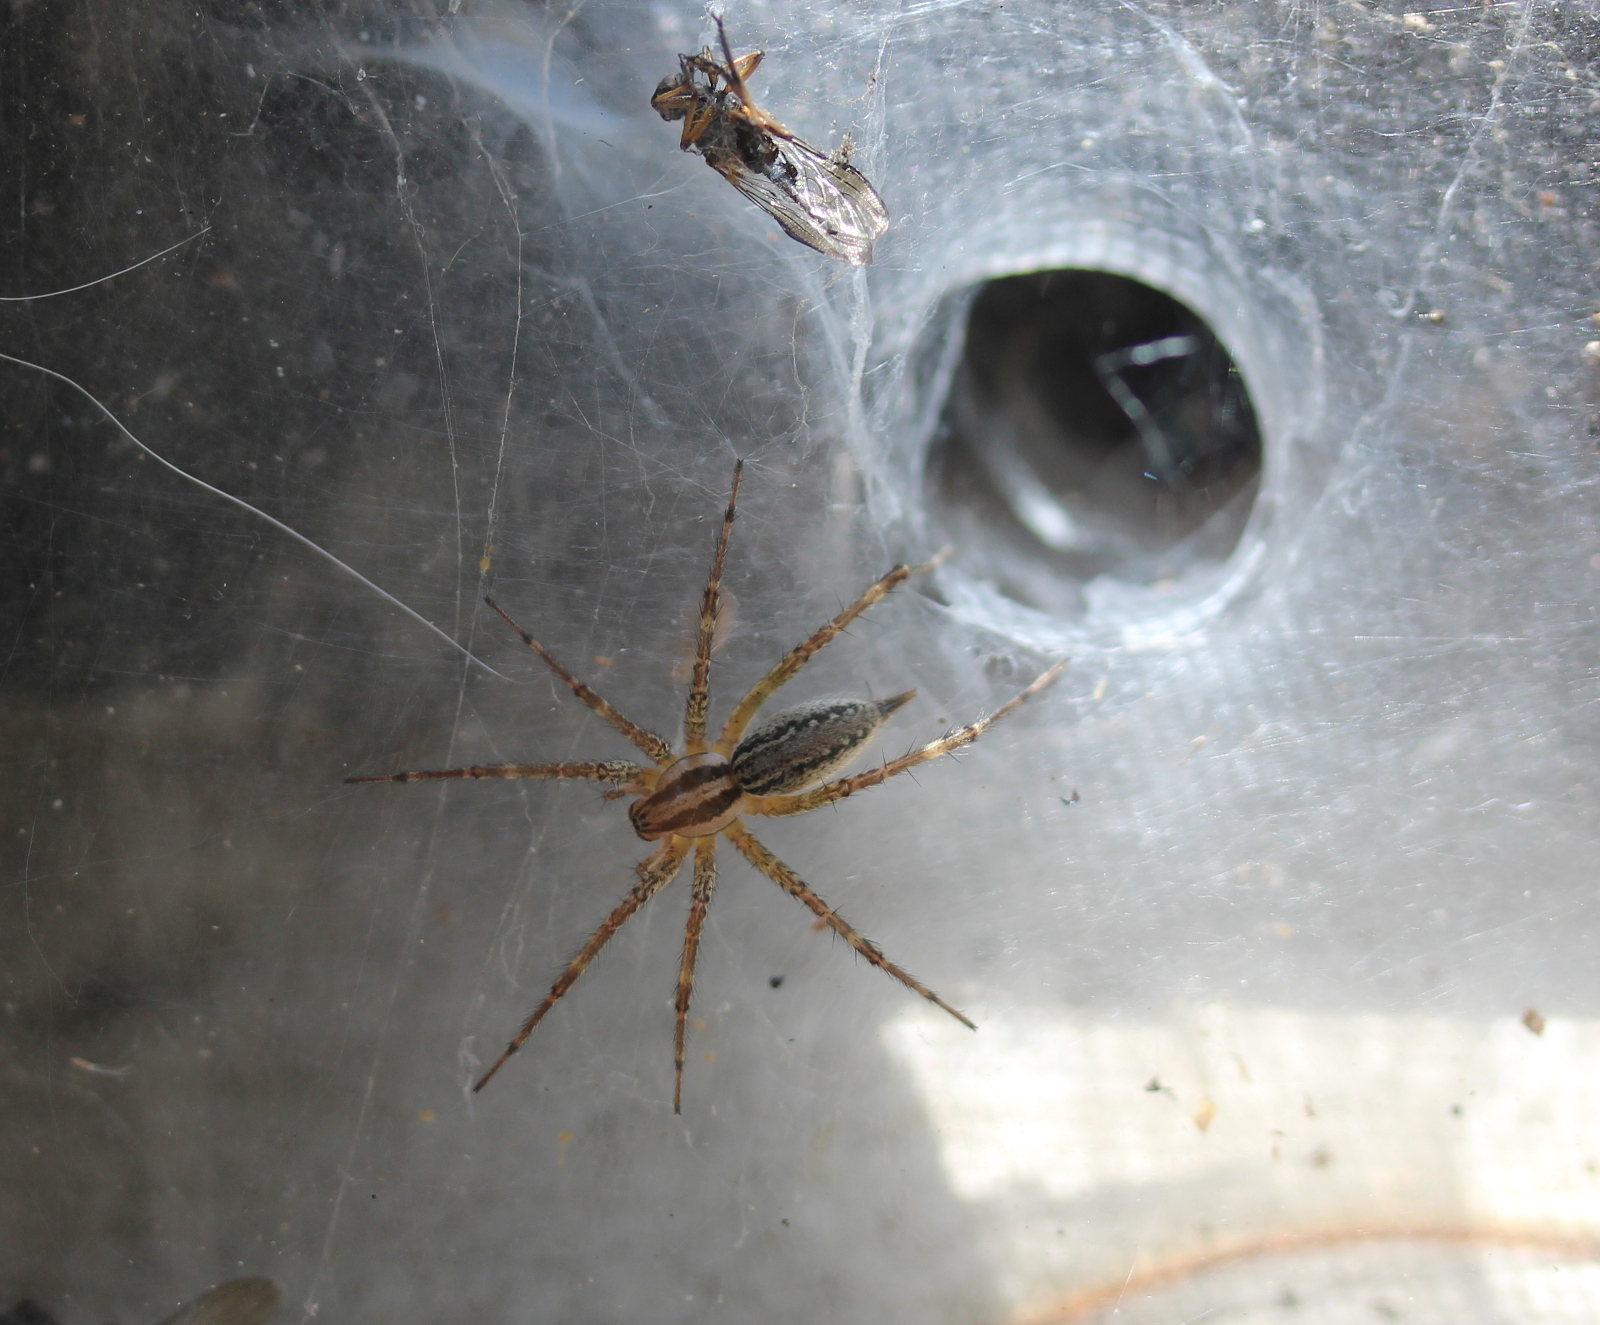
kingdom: Animalia
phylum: Arthropoda
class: Arachnida
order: Araneae
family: Agelenidae
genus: Agelenopsis
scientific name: Agelenopsis
